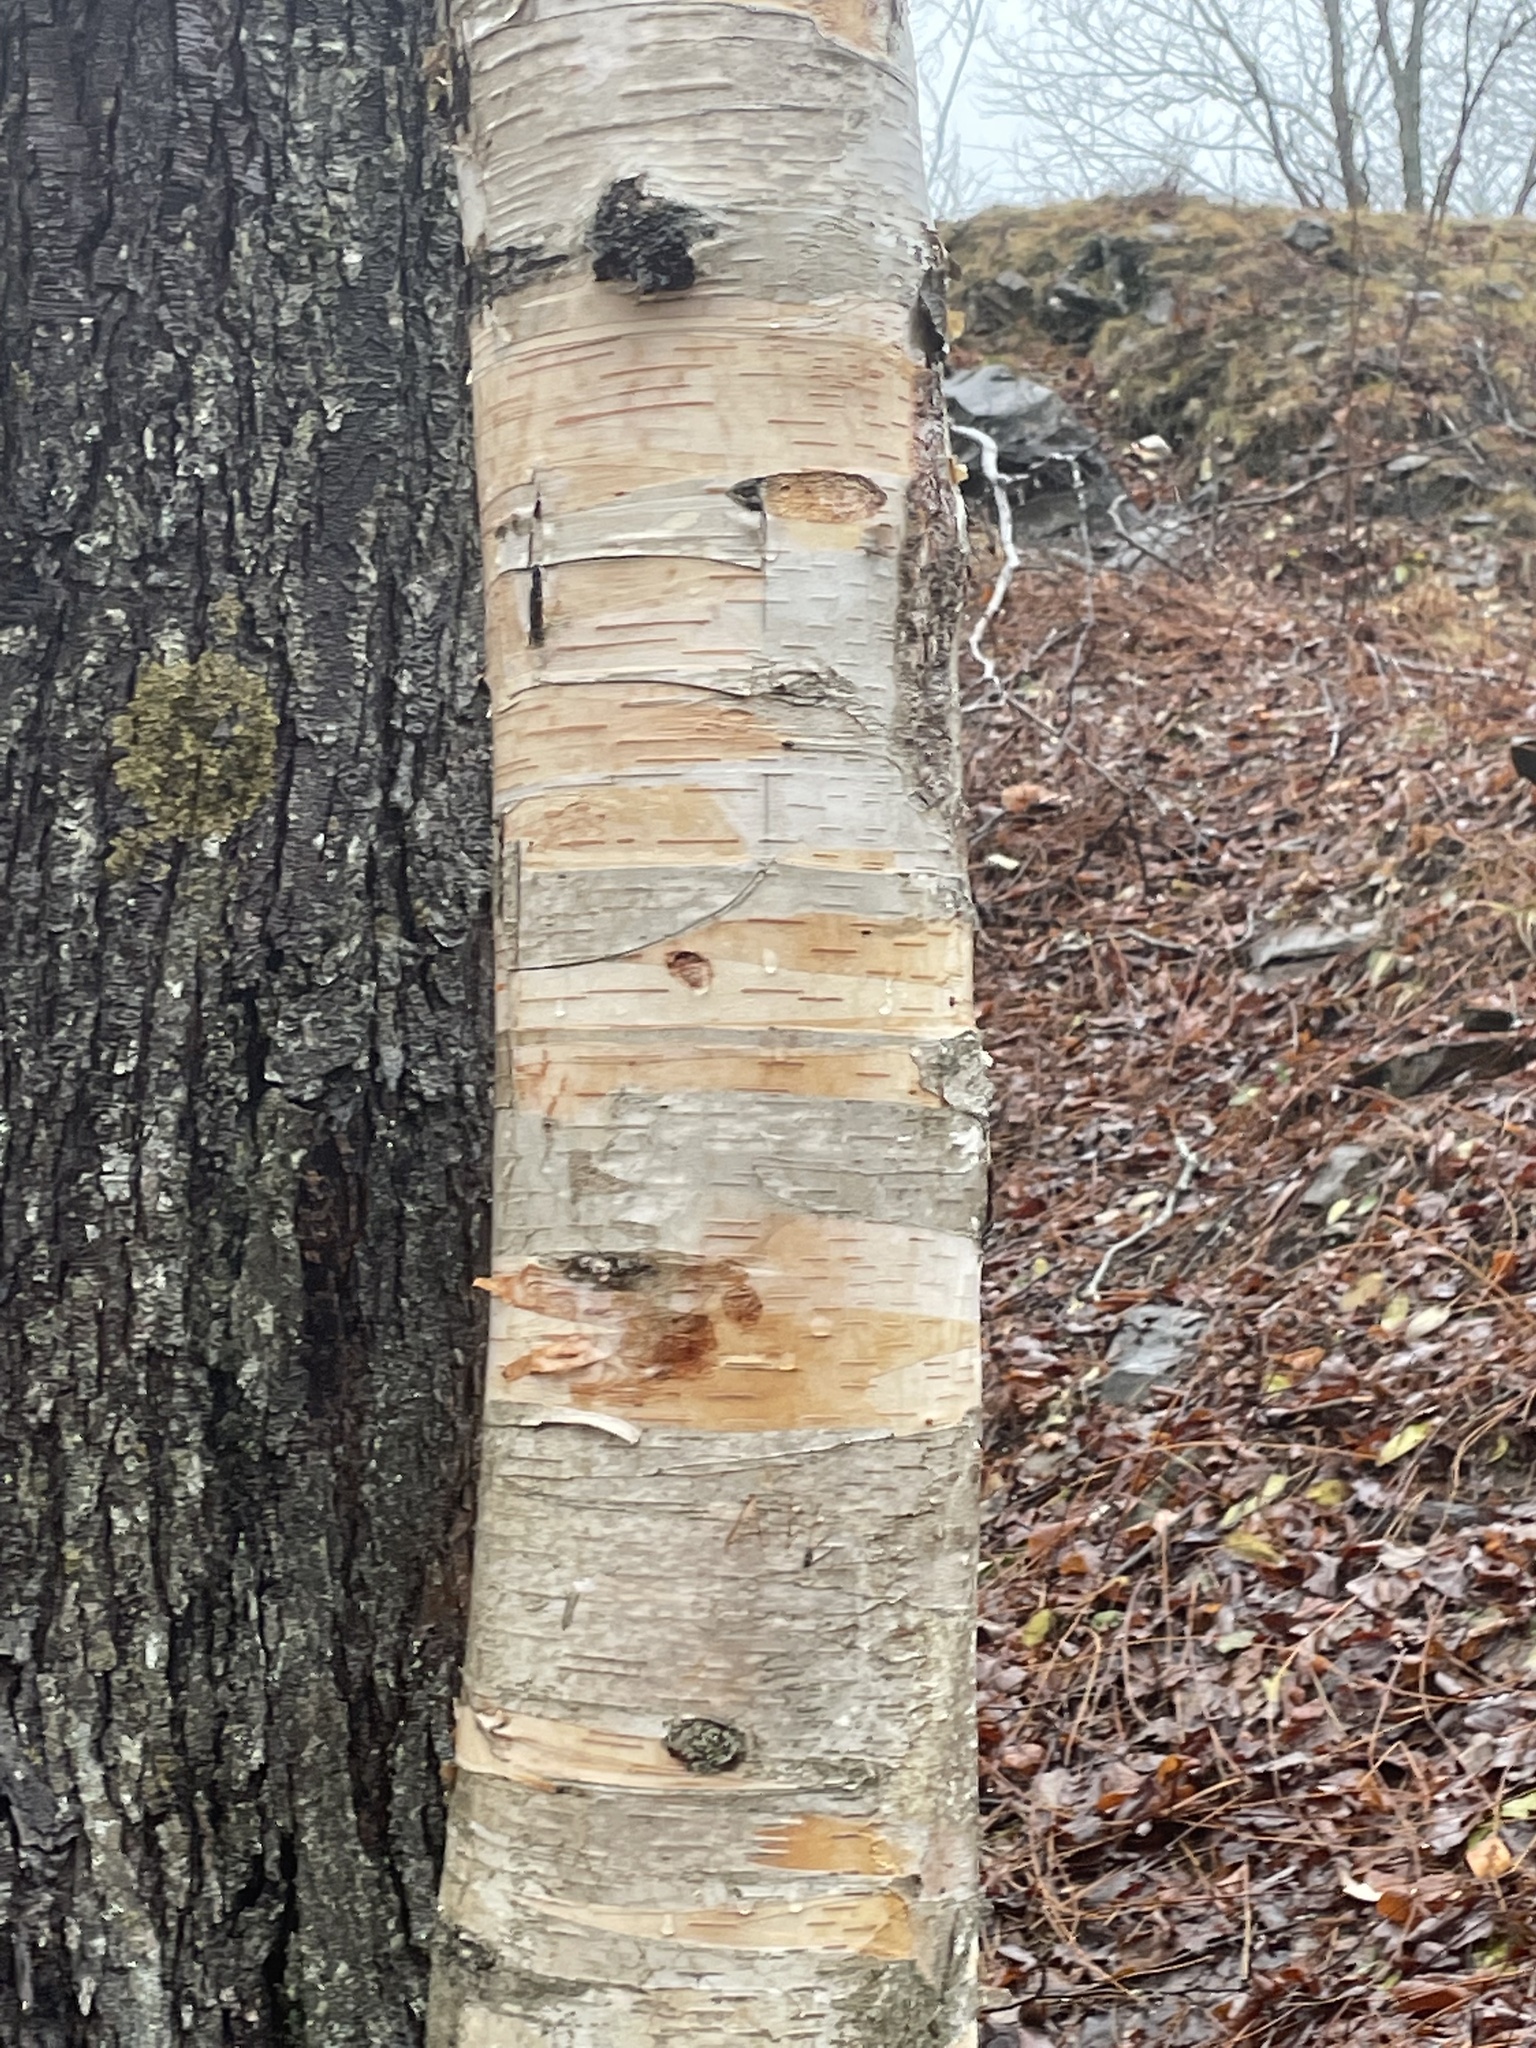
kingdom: Plantae
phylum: Tracheophyta
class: Magnoliopsida
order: Fagales
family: Betulaceae
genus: Betula
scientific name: Betula papyrifera
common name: Paper birch
